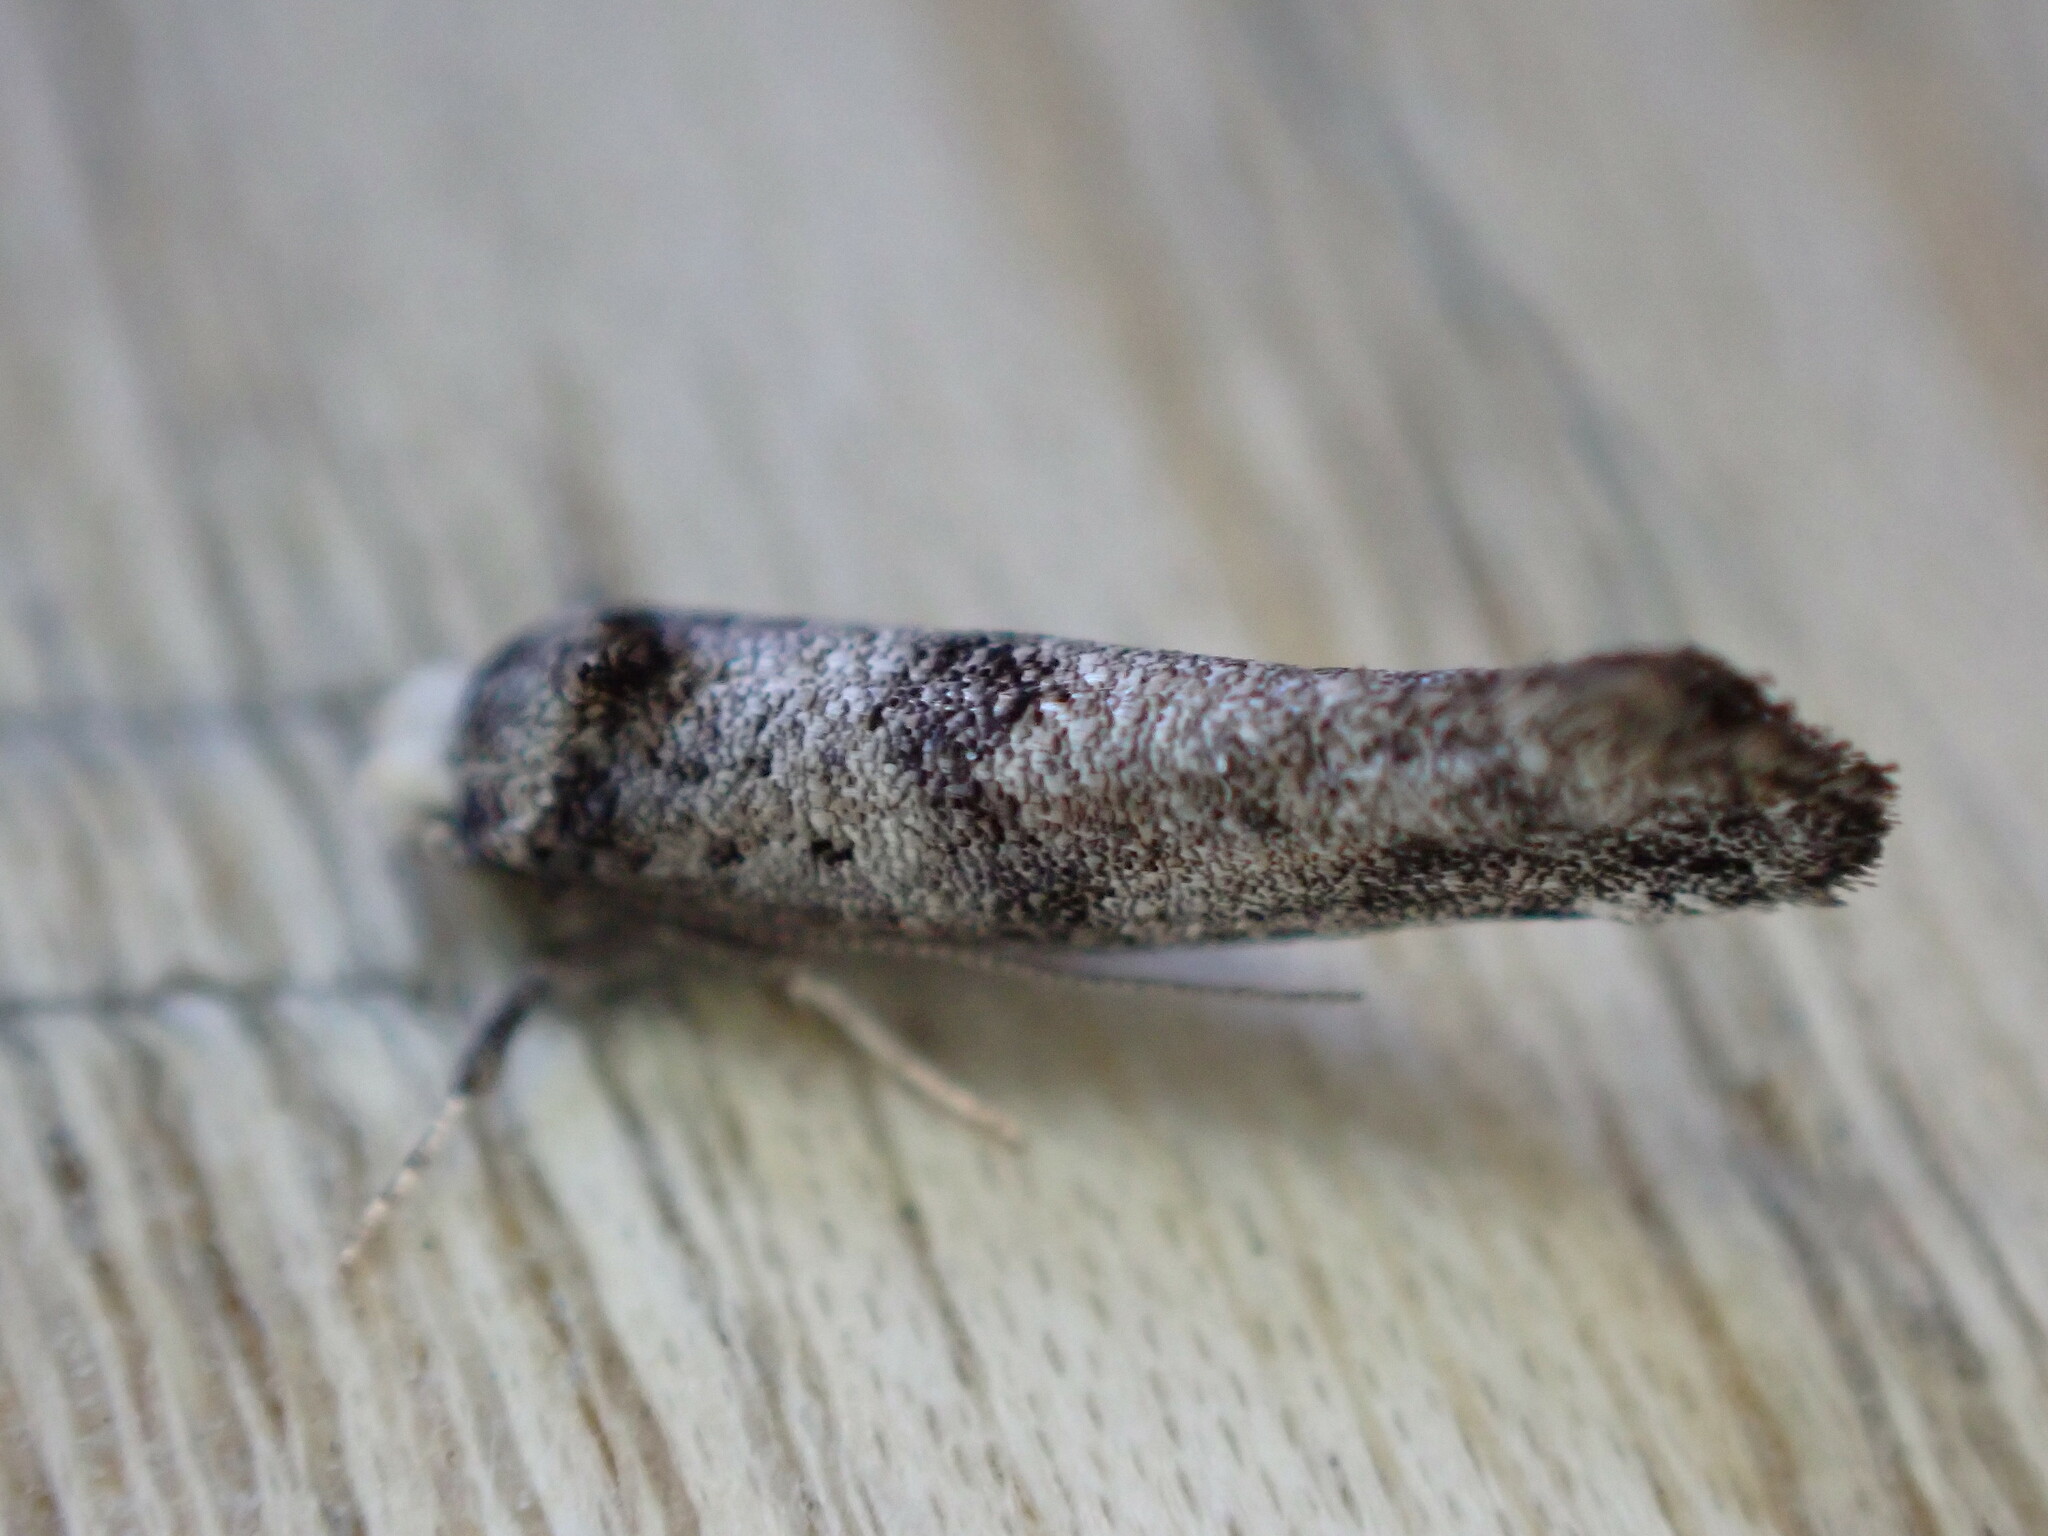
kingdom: Animalia
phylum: Arthropoda
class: Insecta
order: Lepidoptera
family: Yponomeutidae
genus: Swammerdamia
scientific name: Swammerdamia pyrella
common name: Little ermine moth
